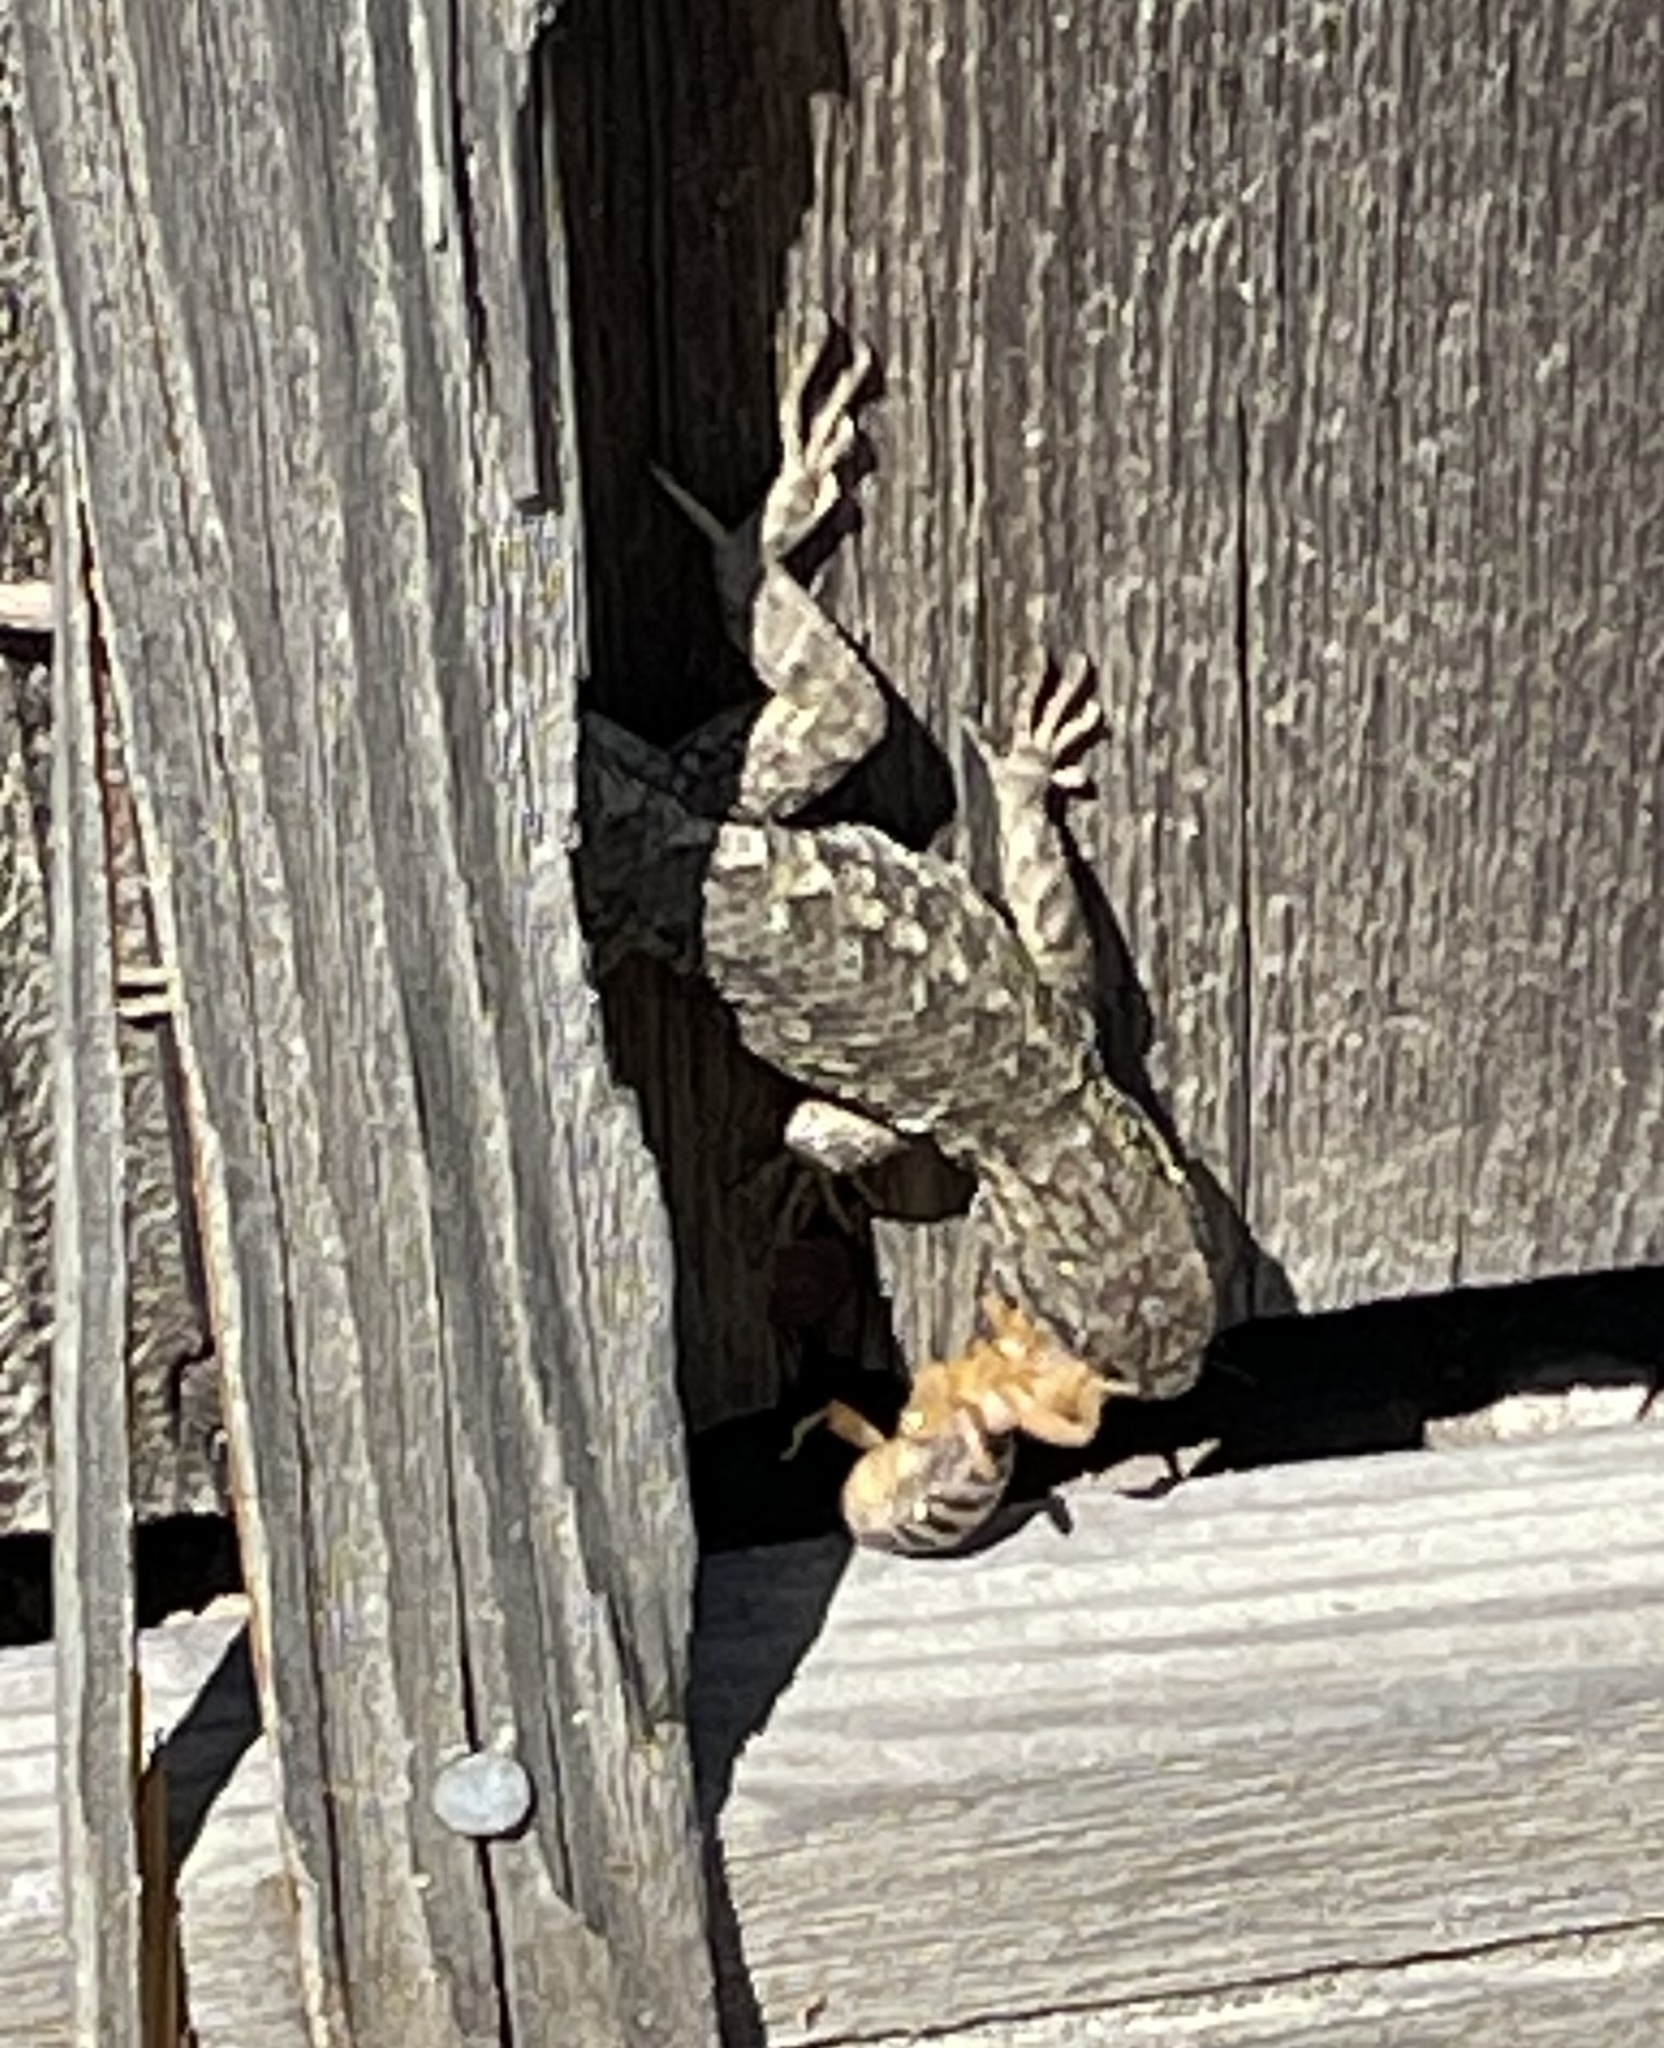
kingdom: Animalia
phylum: Chordata
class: Squamata
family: Phrynosomatidae
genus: Sceloporus
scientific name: Sceloporus occidentalis
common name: Western fence lizard
